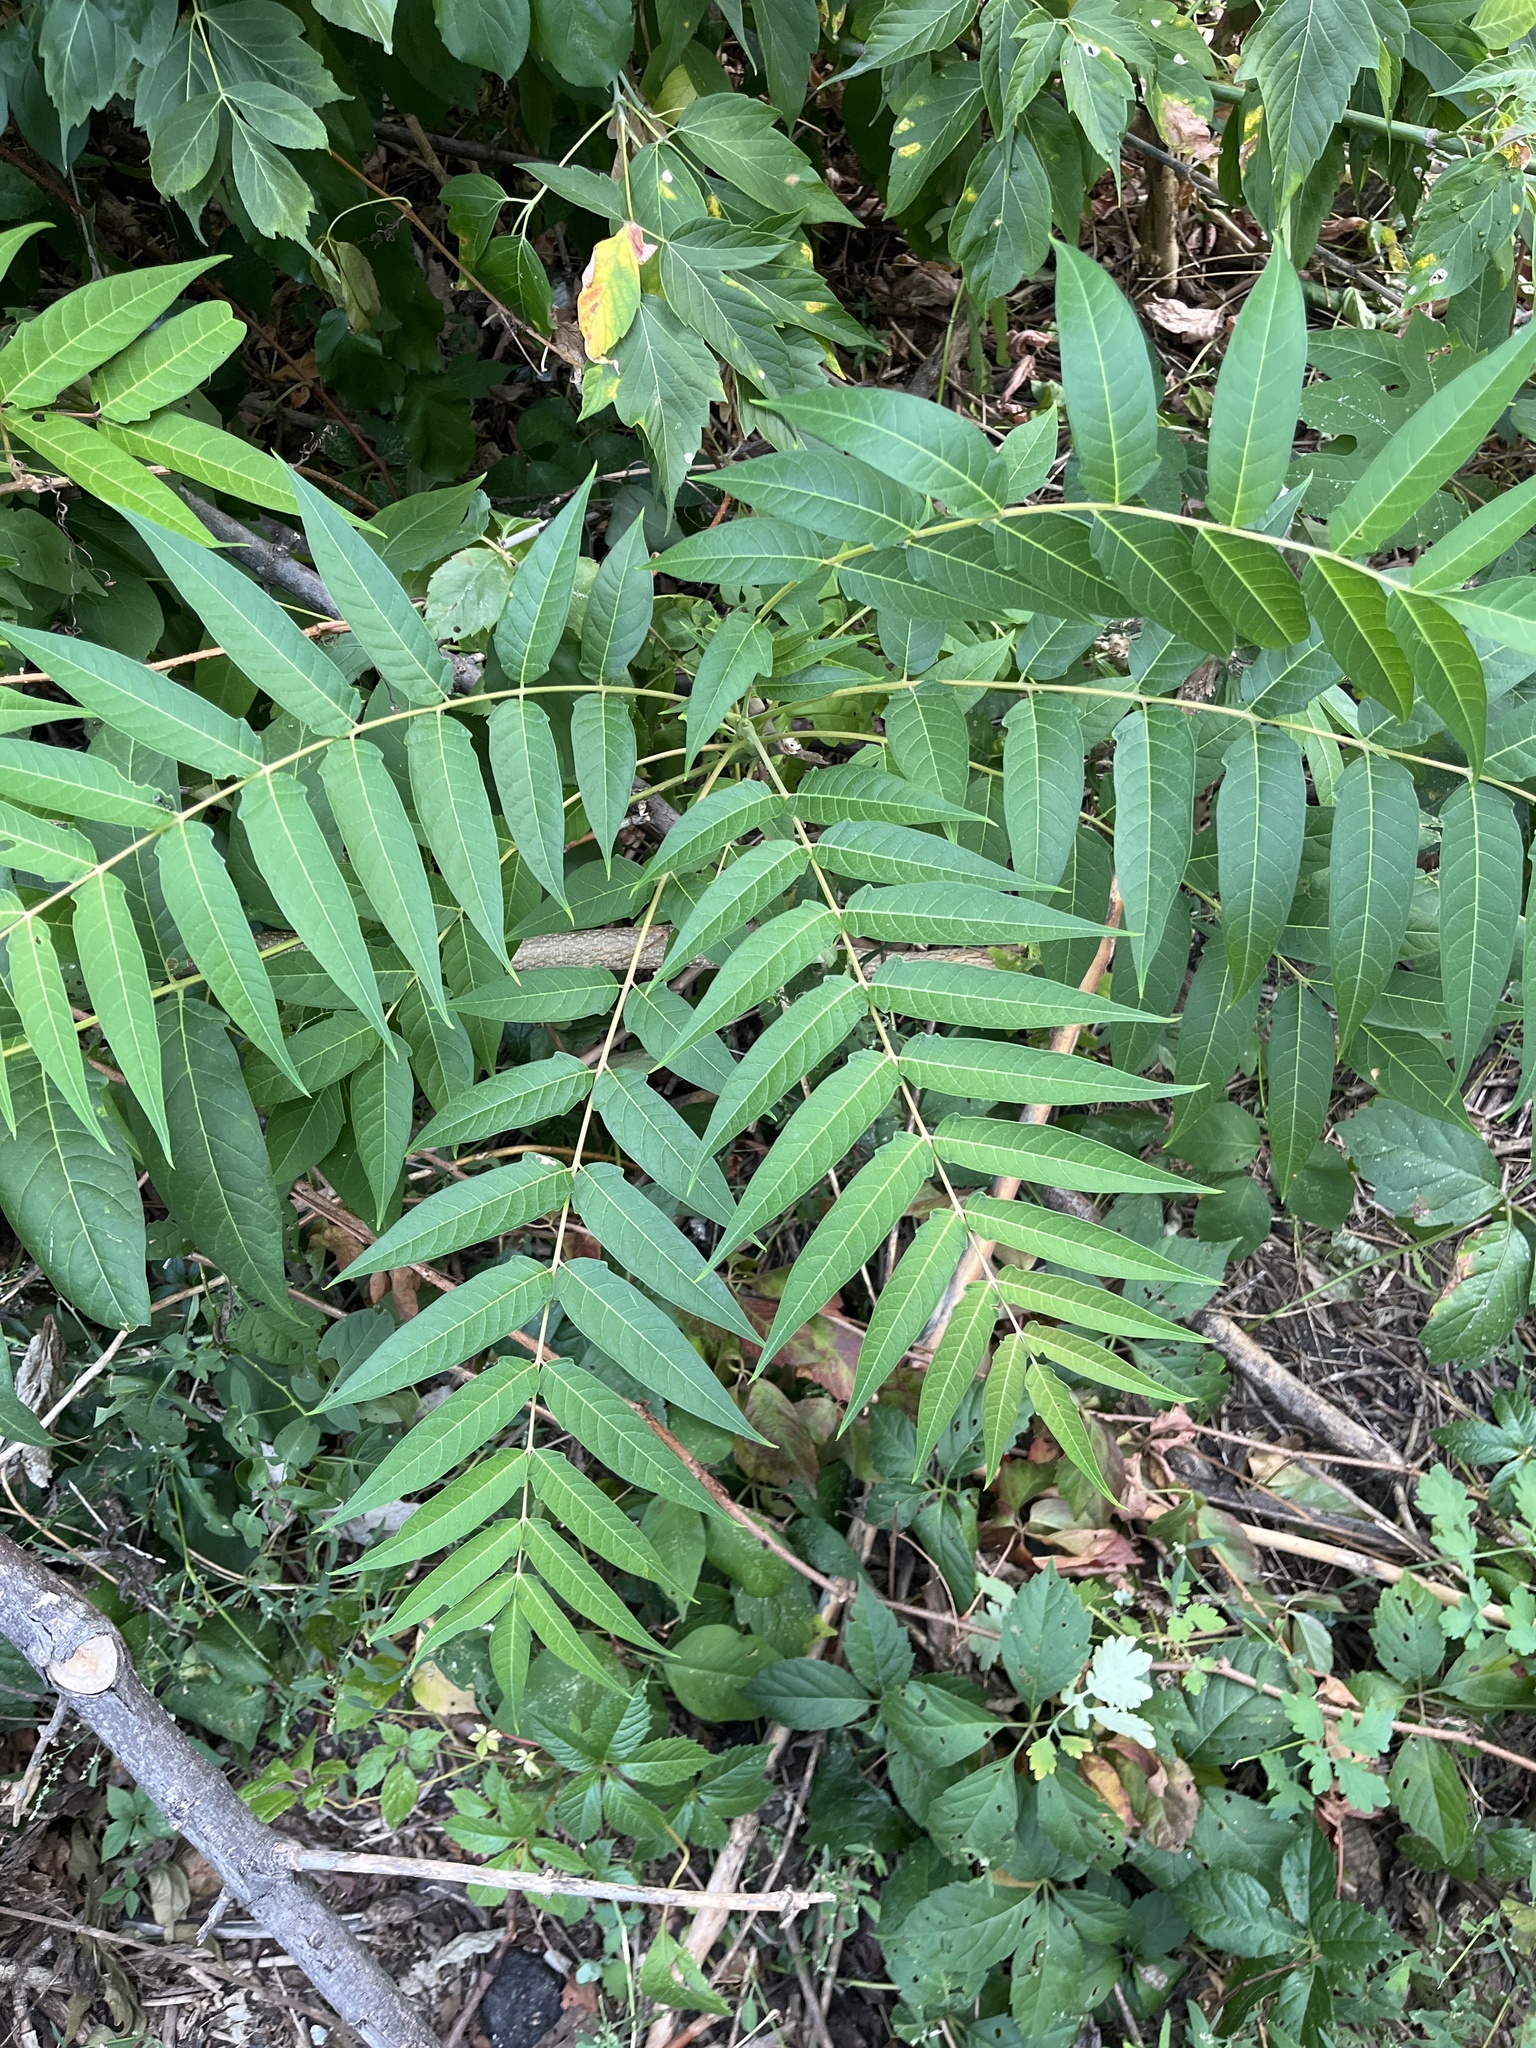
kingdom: Plantae
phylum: Tracheophyta
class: Magnoliopsida
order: Sapindales
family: Simaroubaceae
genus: Ailanthus
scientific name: Ailanthus altissima
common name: Tree-of-heaven
